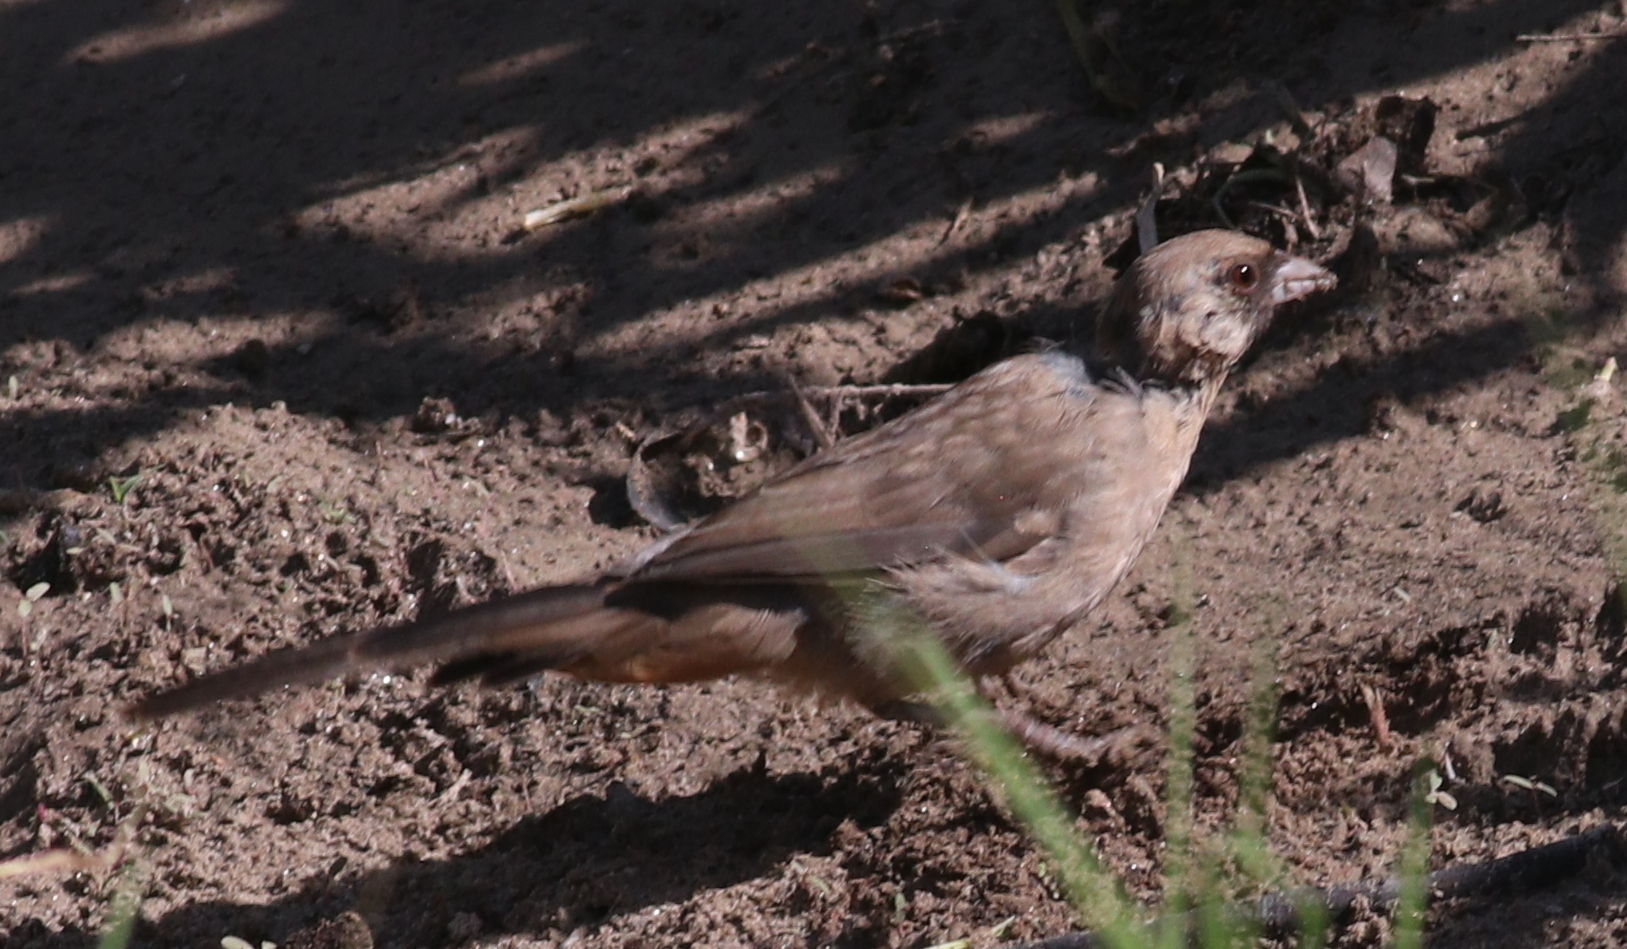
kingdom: Animalia
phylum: Chordata
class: Aves
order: Passeriformes
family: Passerellidae
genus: Melozone
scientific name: Melozone aberti
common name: Abert's towhee
